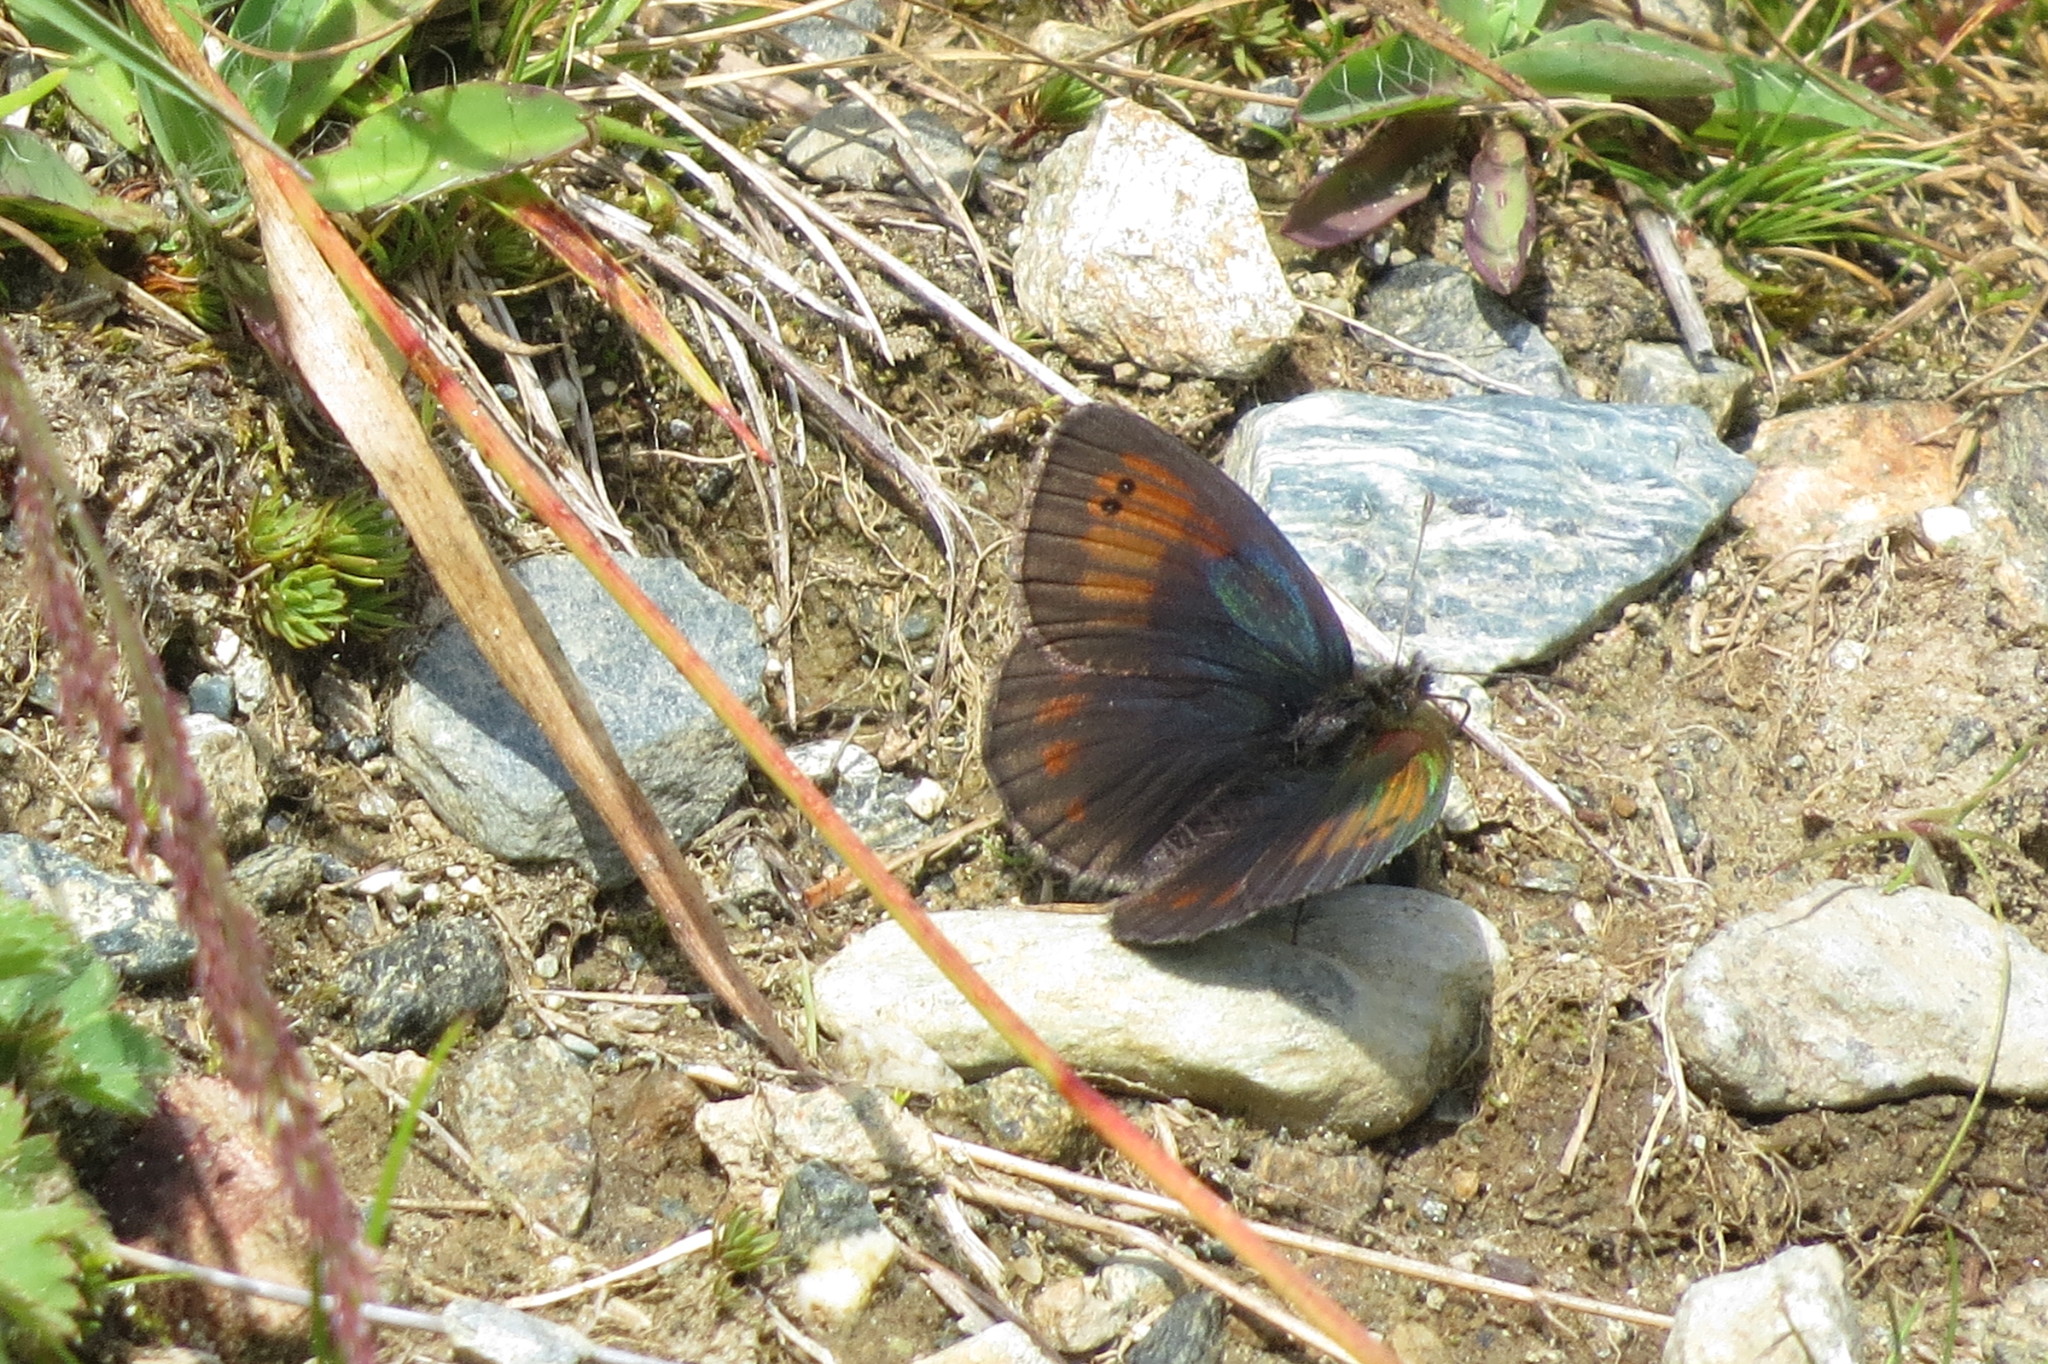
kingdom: Animalia
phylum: Arthropoda
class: Insecta
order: Lepidoptera
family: Nymphalidae
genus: Erebia
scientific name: Erebia tyndarus
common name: Swiss brassy ringlet
